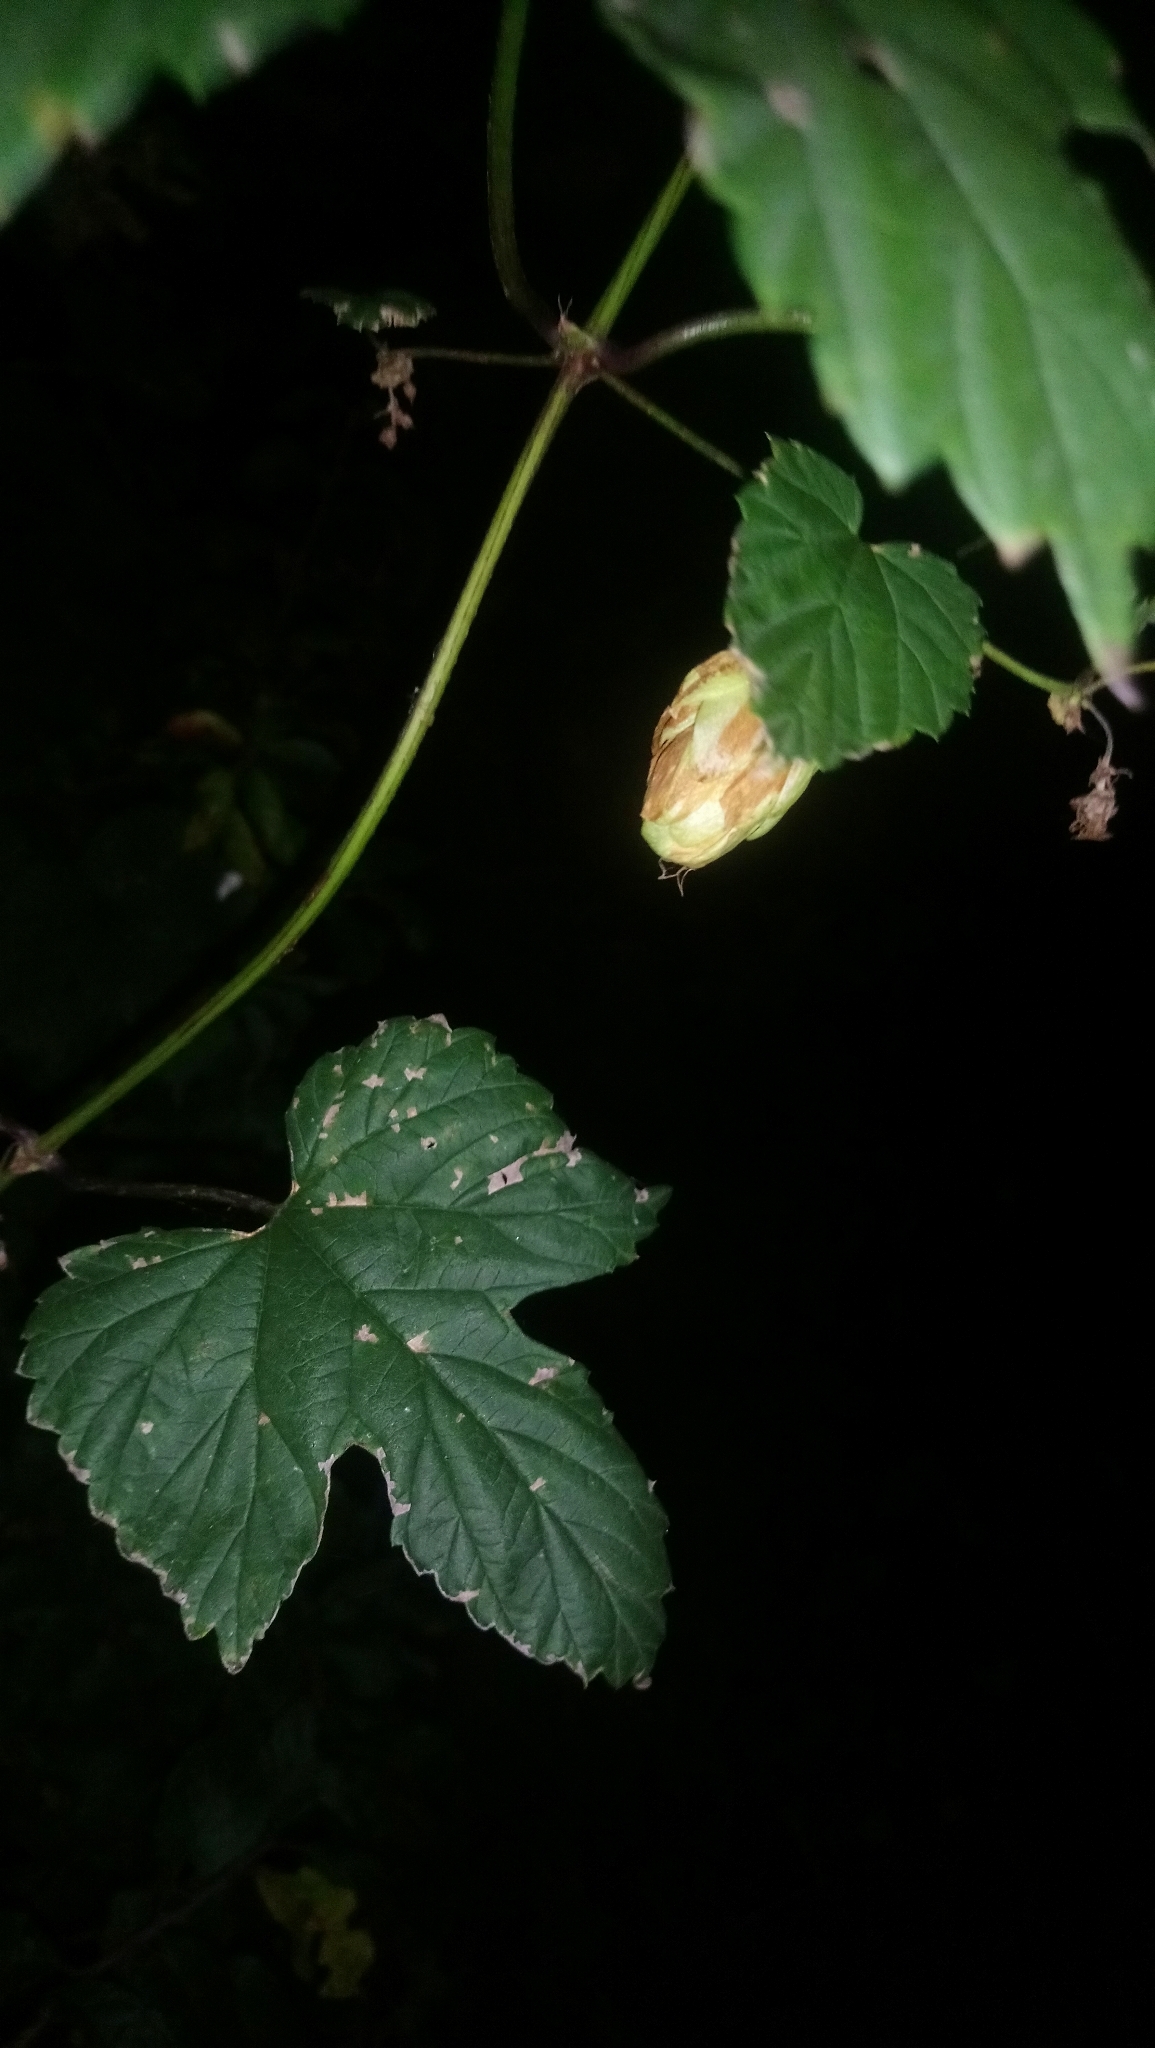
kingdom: Plantae
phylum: Tracheophyta
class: Magnoliopsida
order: Rosales
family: Cannabaceae
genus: Humulus
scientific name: Humulus lupulus
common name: Hop
